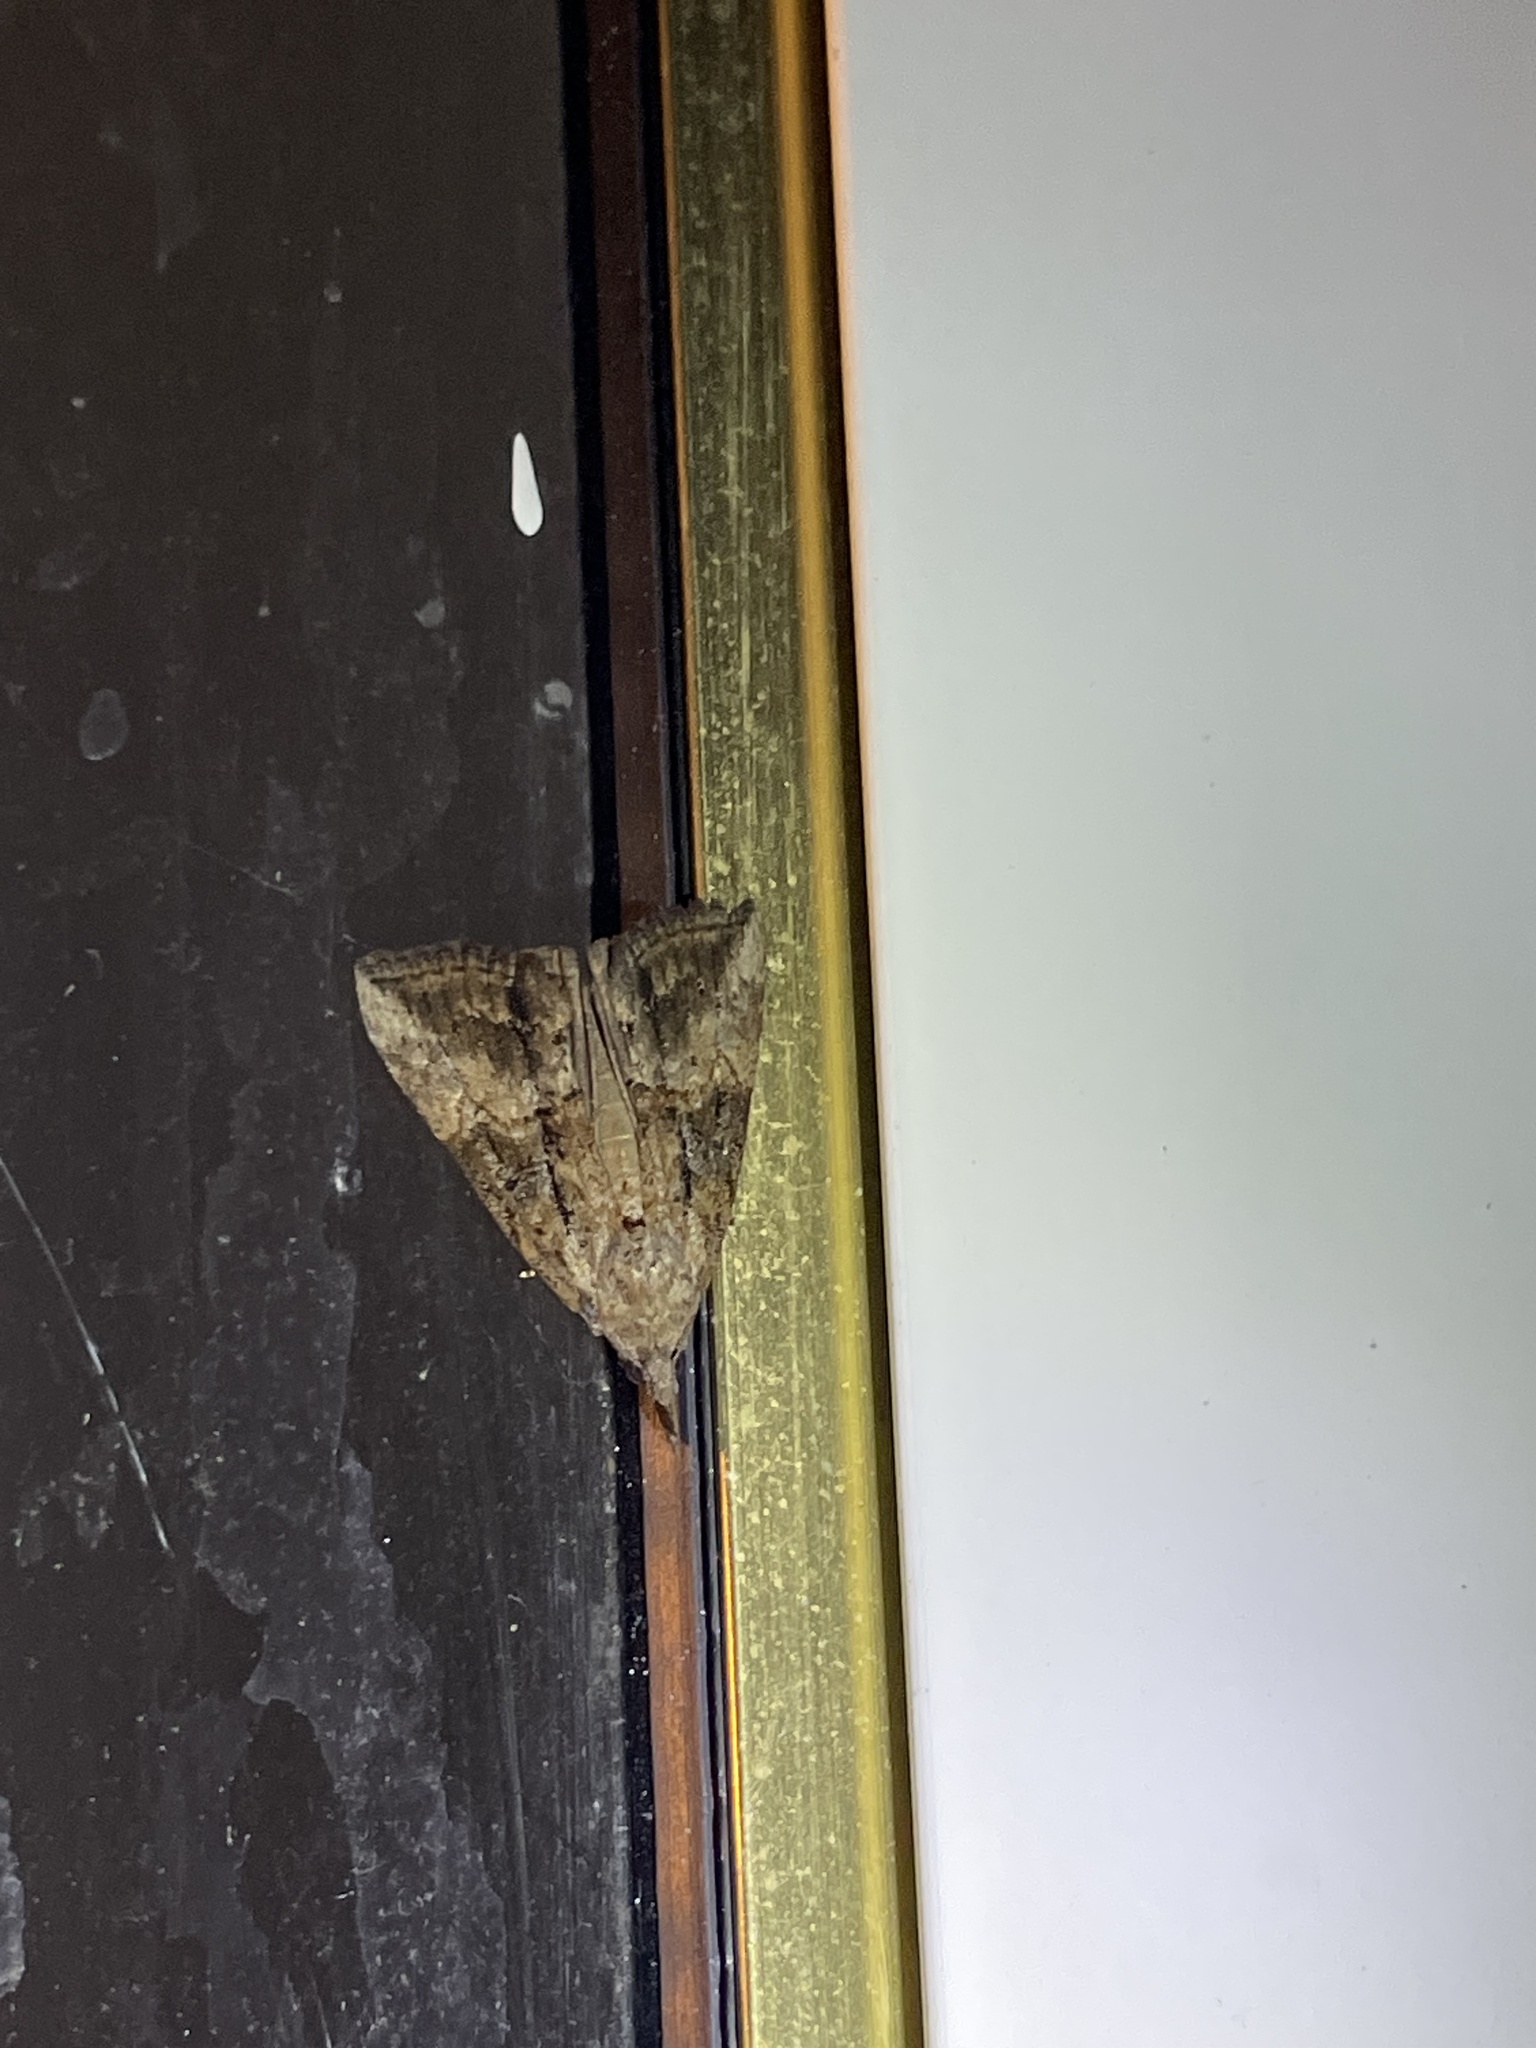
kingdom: Animalia
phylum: Arthropoda
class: Insecta
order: Lepidoptera
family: Erebidae
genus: Hypena
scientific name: Hypena scabra
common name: Green cloverworm
